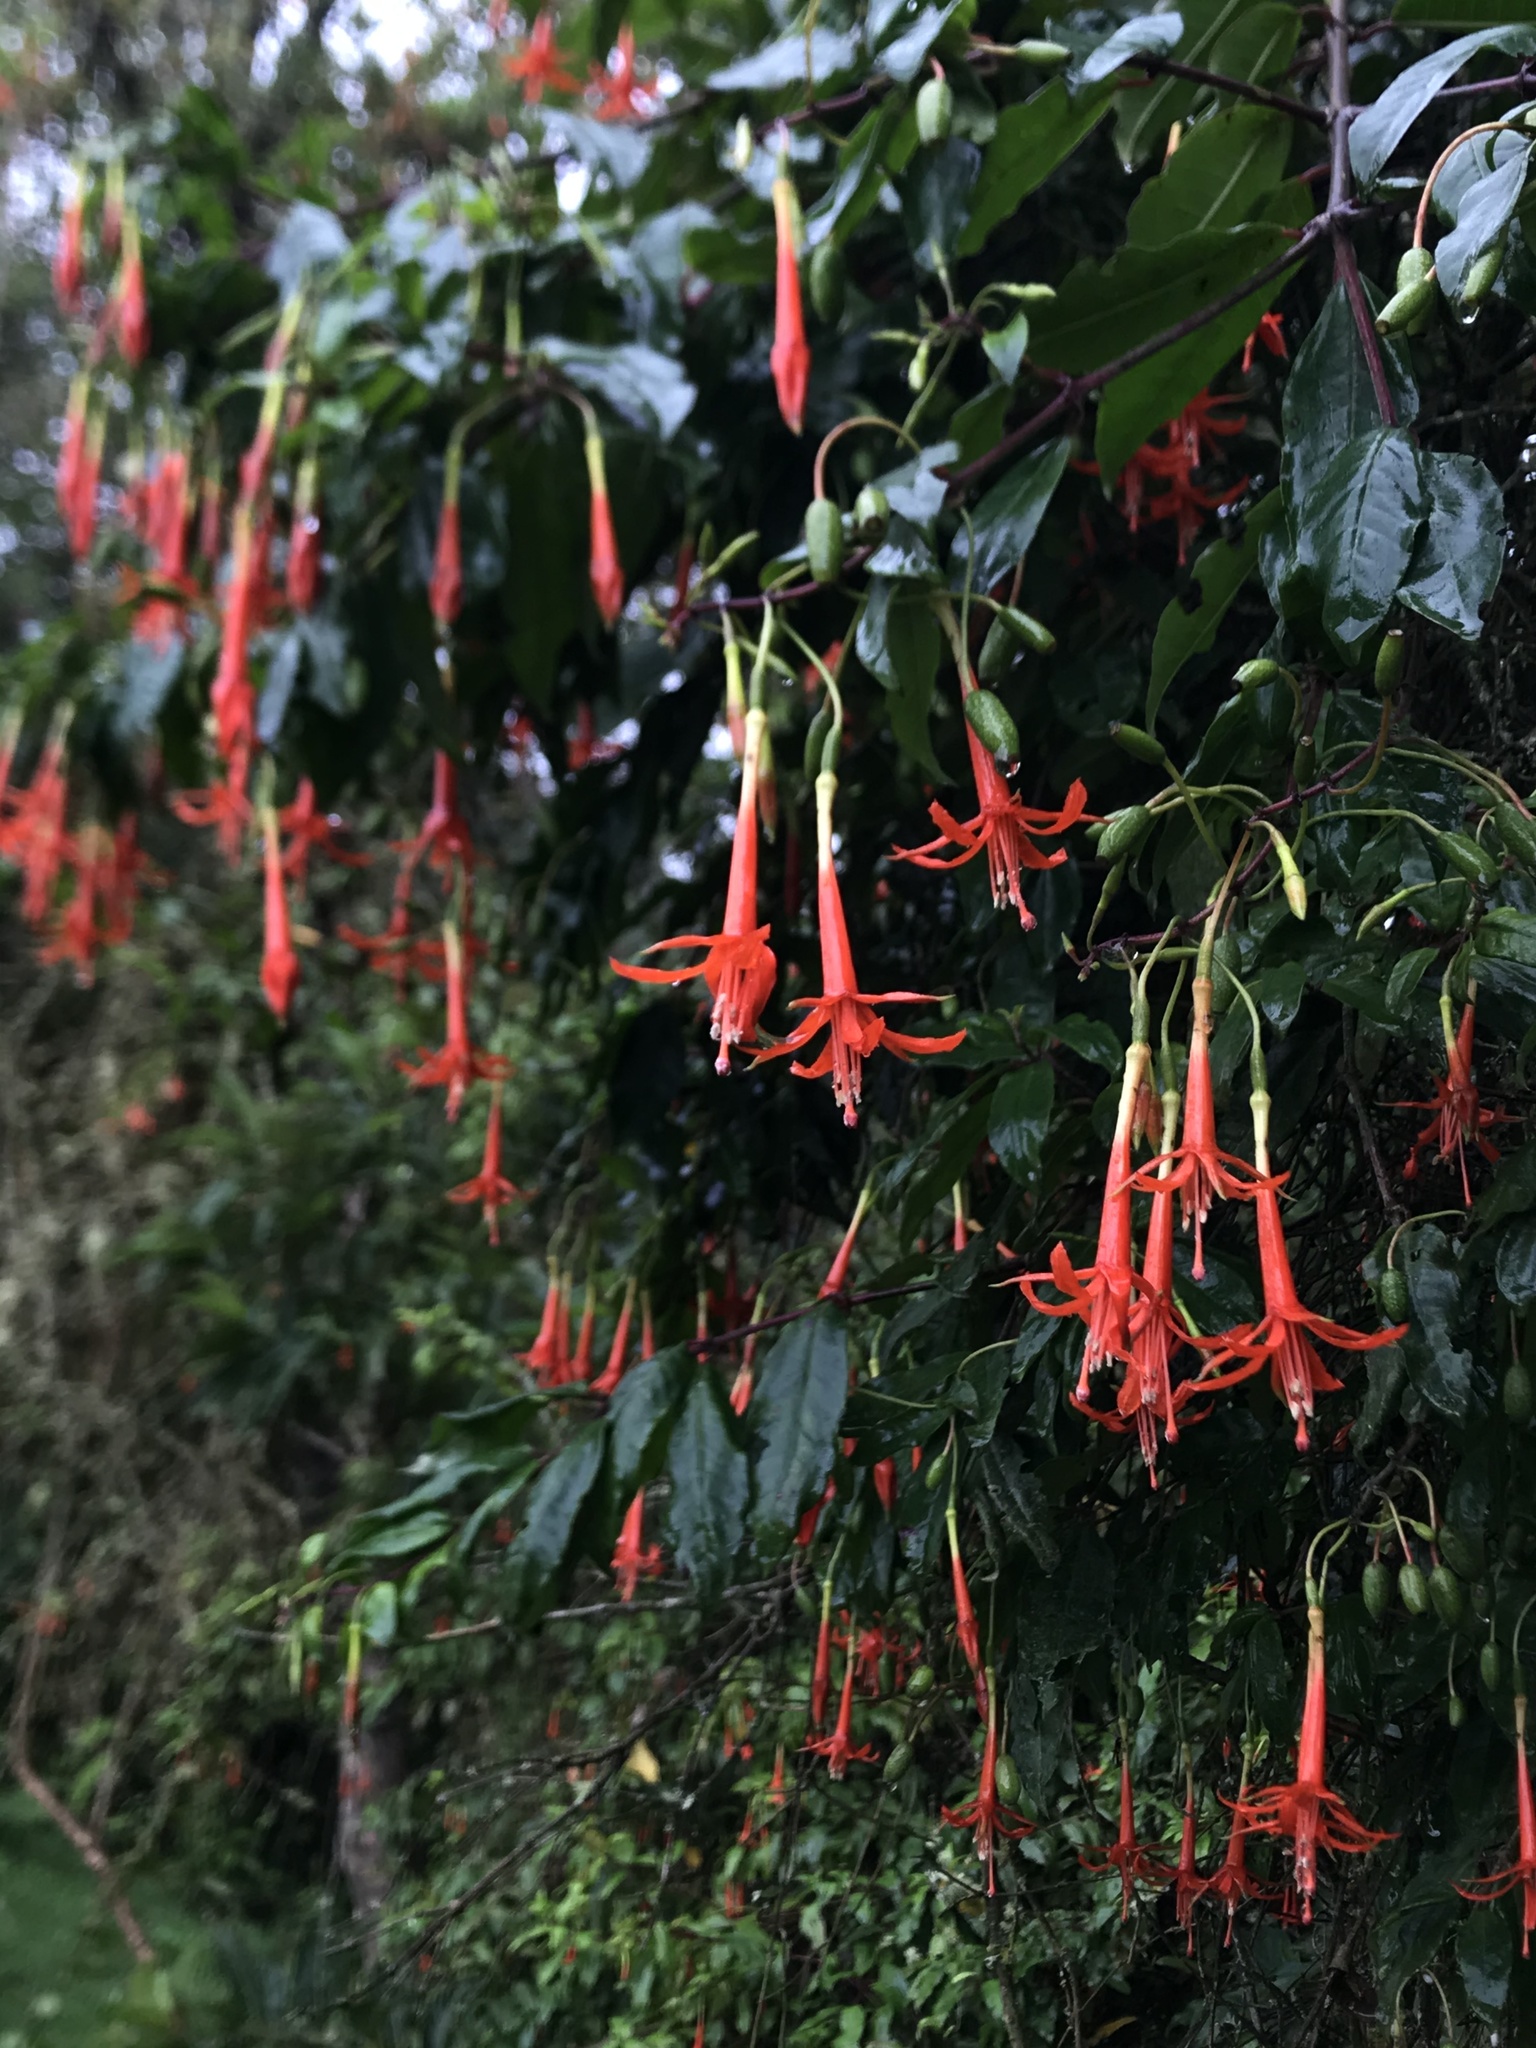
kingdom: Plantae
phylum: Tracheophyta
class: Magnoliopsida
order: Myrtales
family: Onagraceae
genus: Fuchsia
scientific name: Fuchsia venusta
